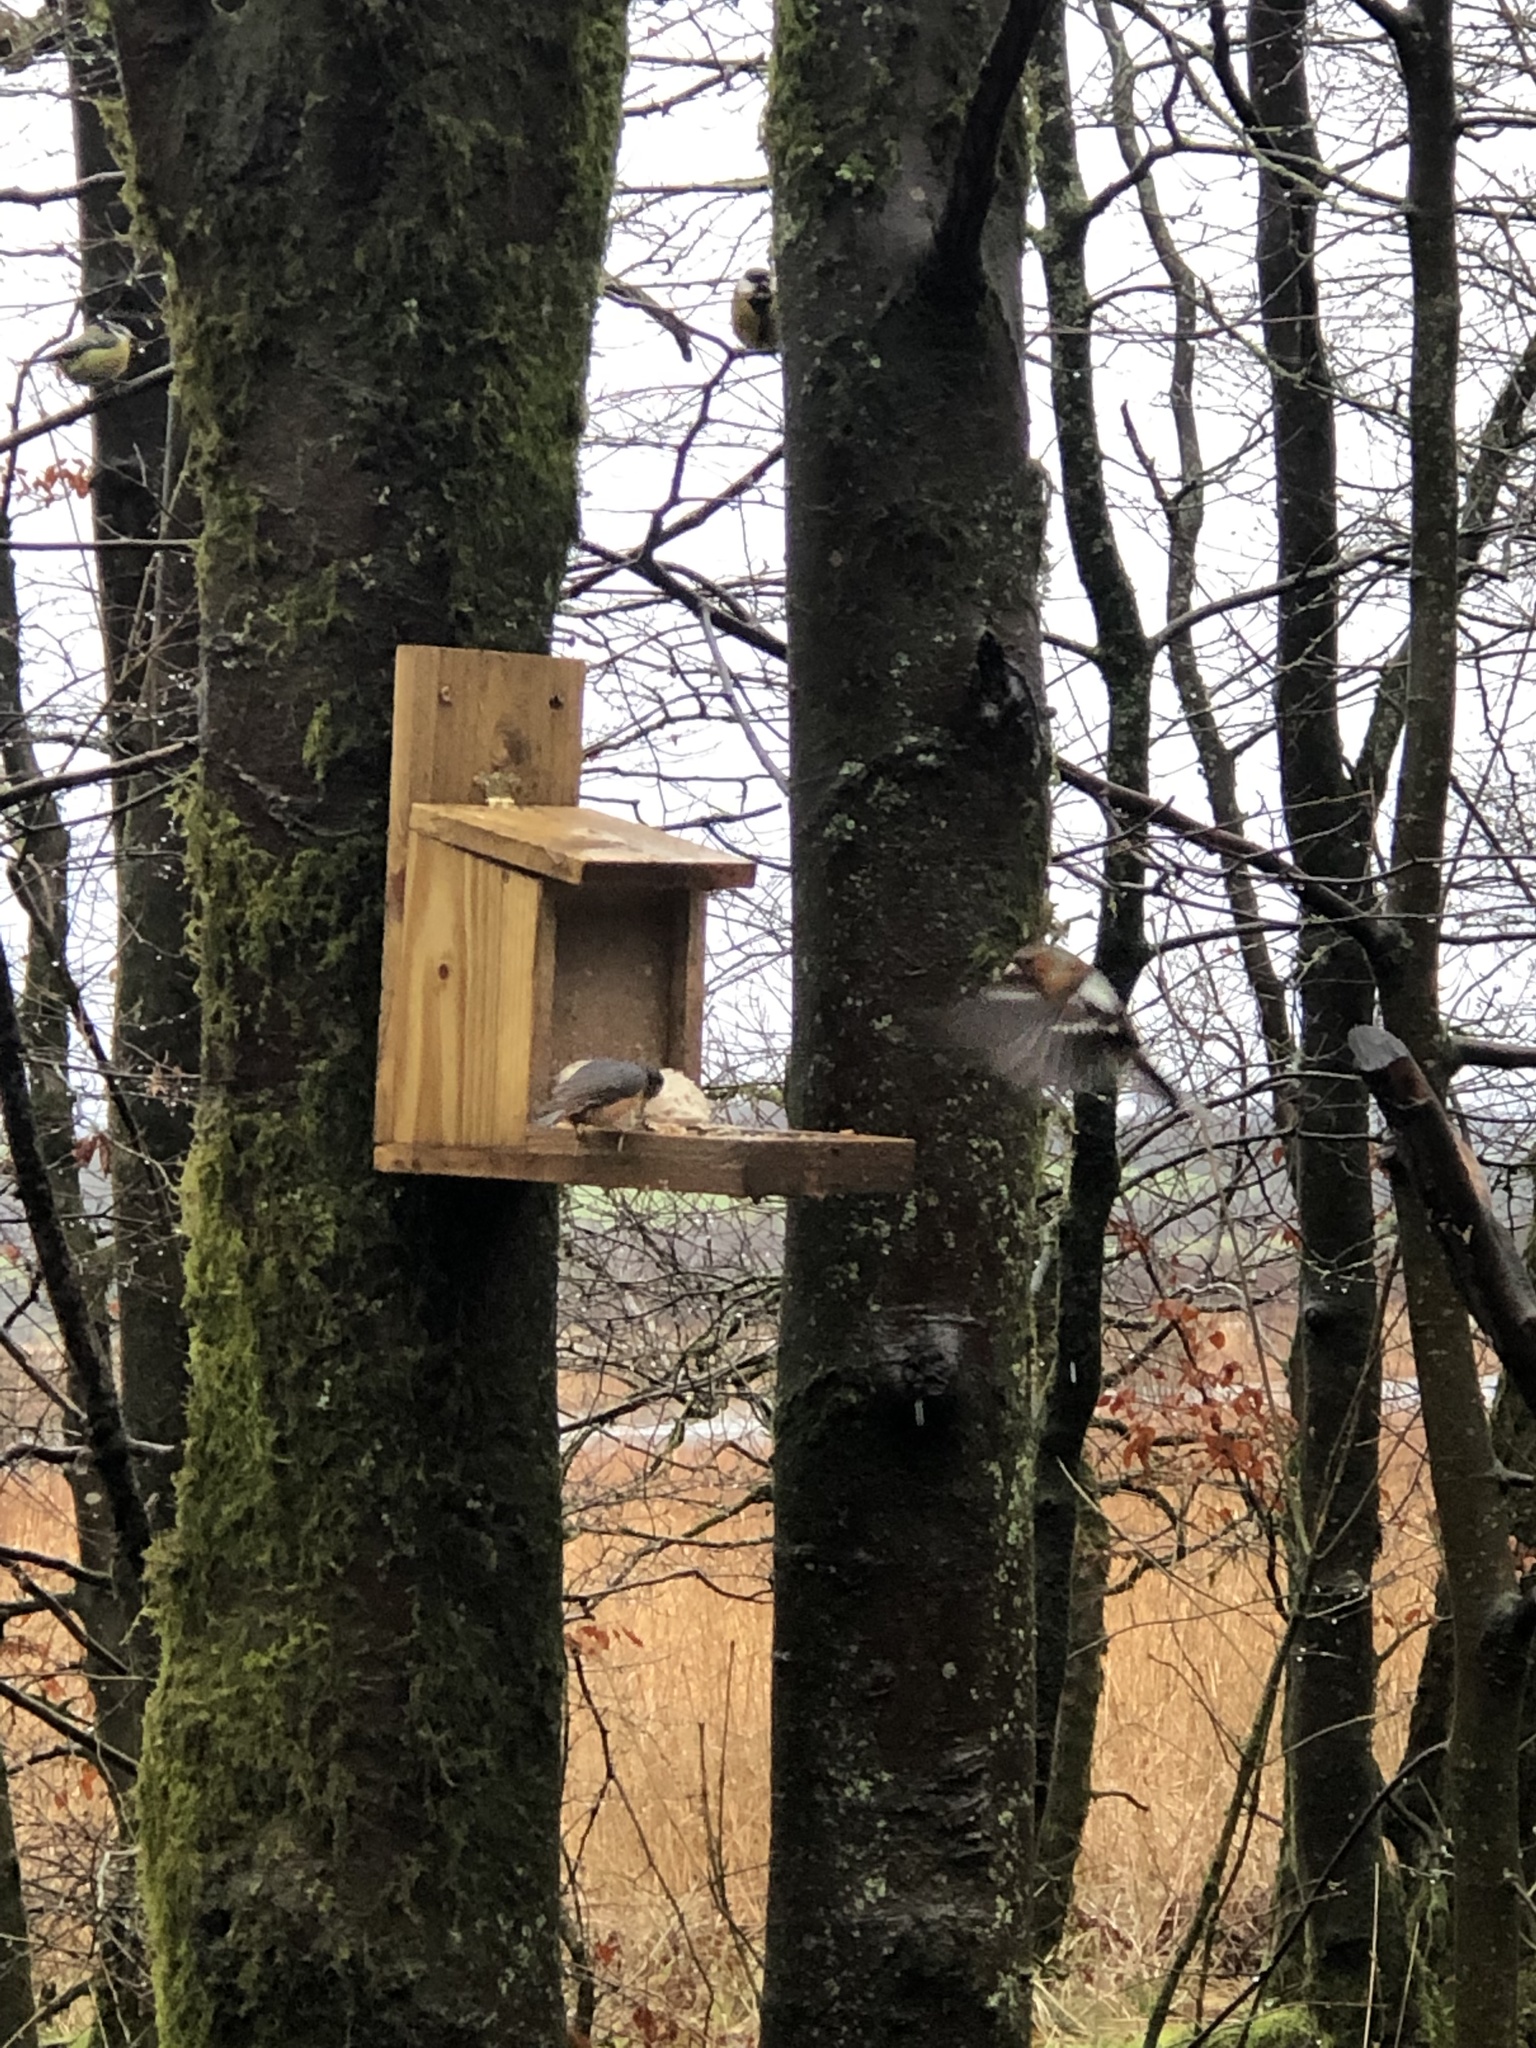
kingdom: Animalia
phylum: Chordata
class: Aves
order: Passeriformes
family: Fringillidae
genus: Fringilla
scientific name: Fringilla coelebs
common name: Common chaffinch
